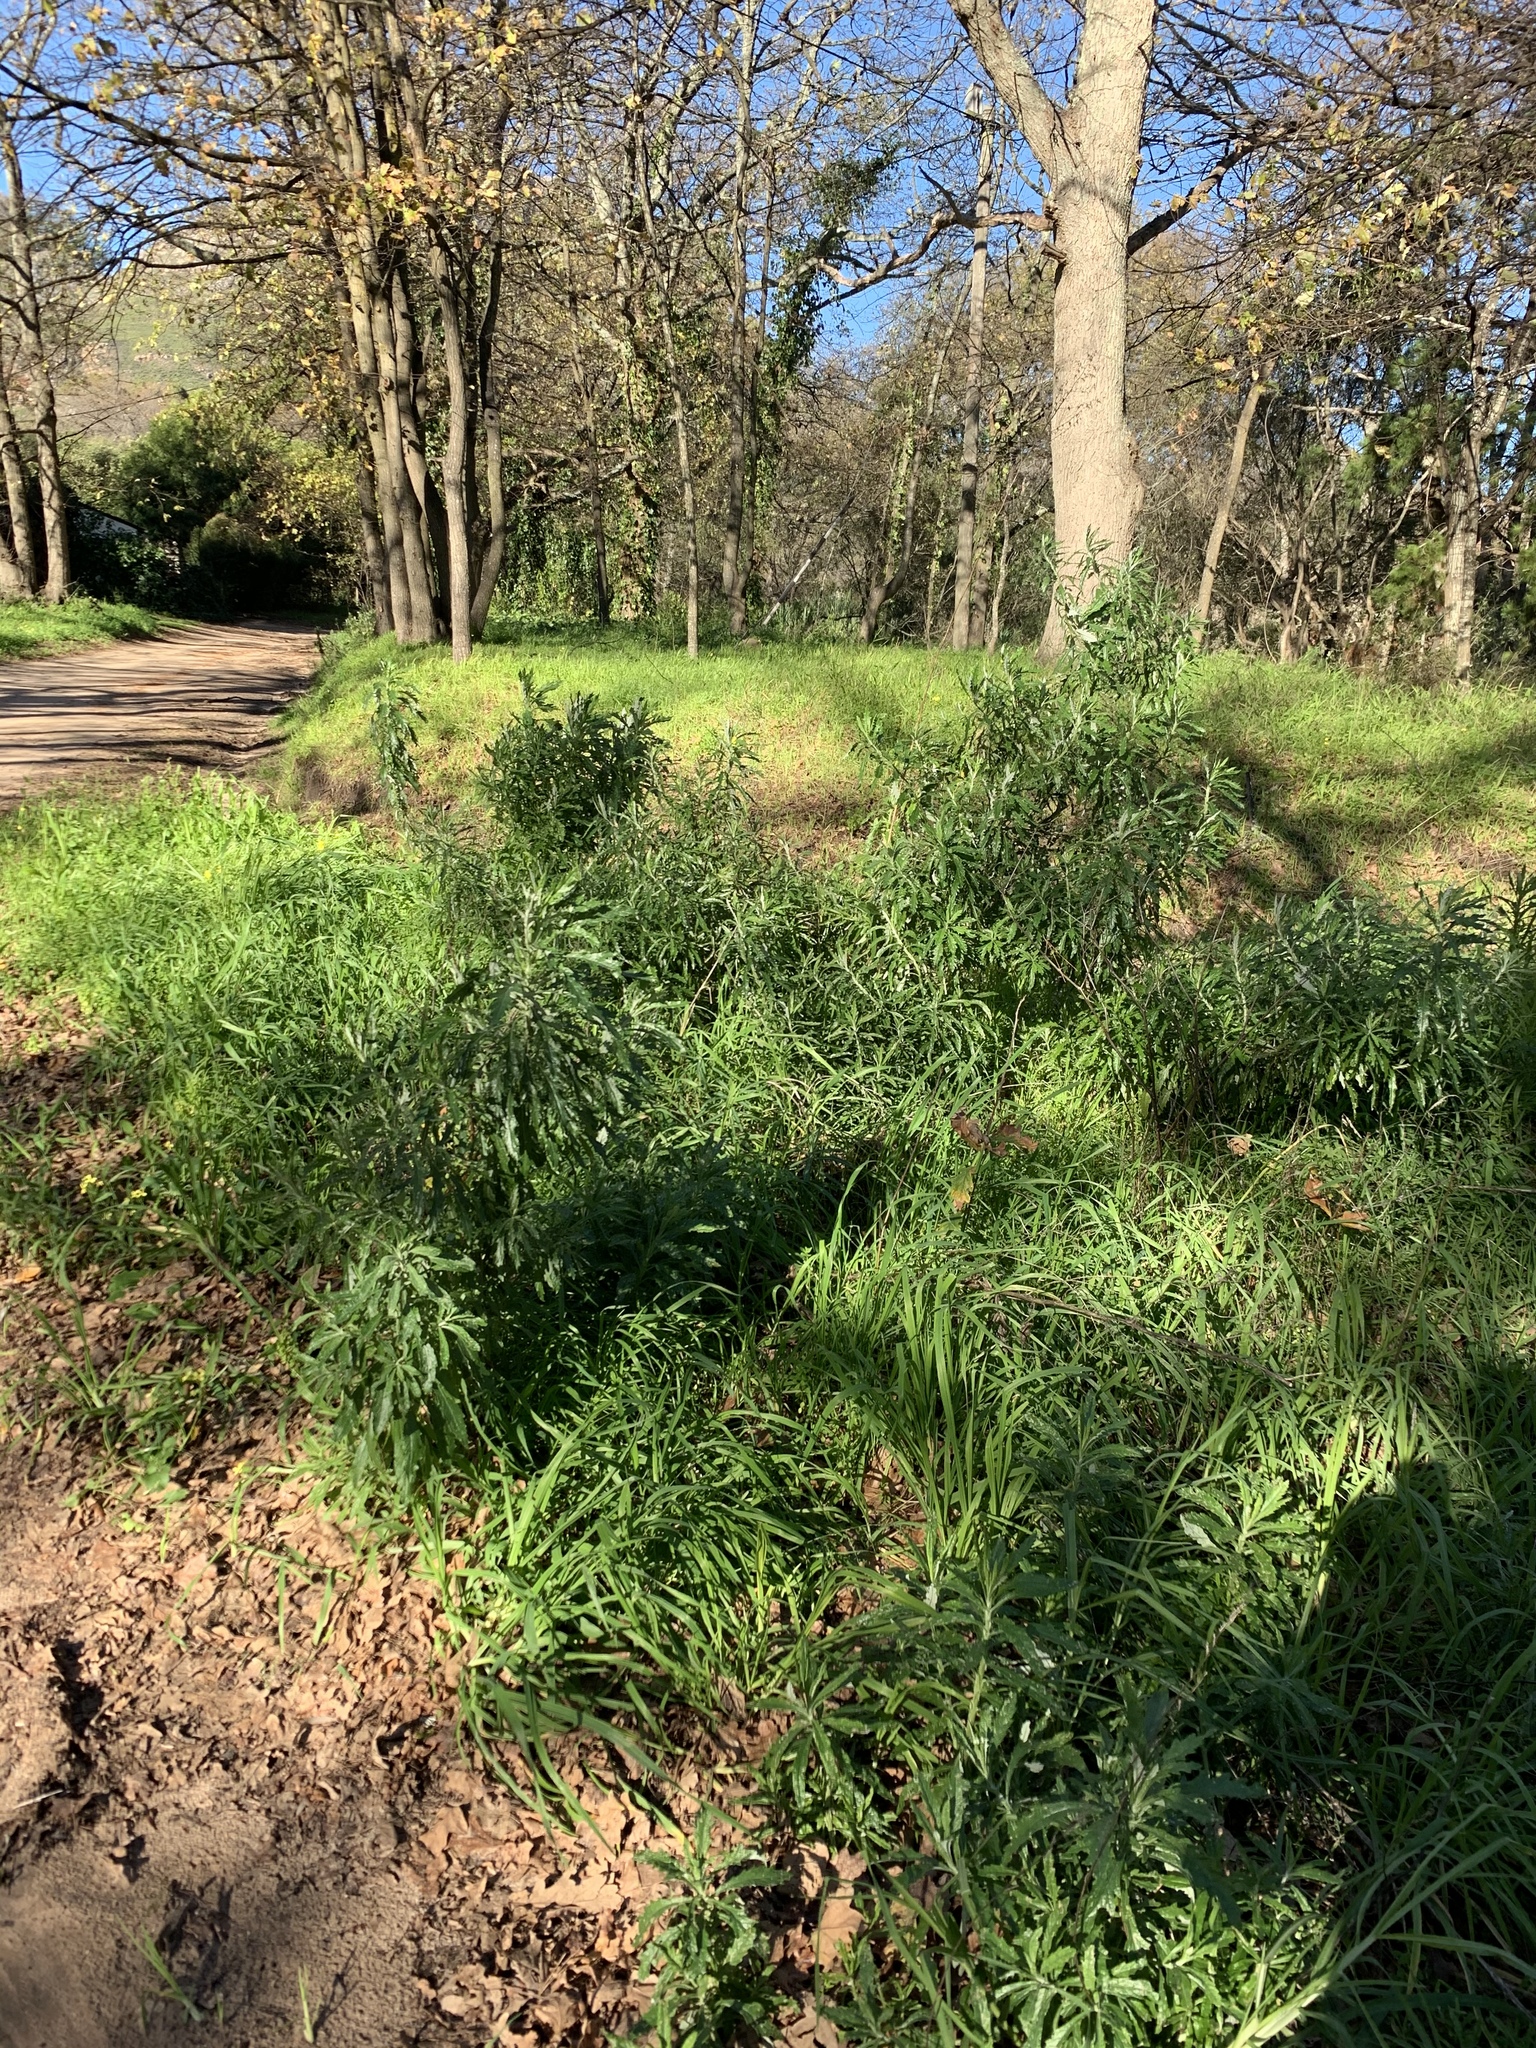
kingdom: Plantae
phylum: Tracheophyta
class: Magnoliopsida
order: Asterales
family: Asteraceae
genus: Senecio
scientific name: Senecio pterophorus
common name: Shoddy ragwort
